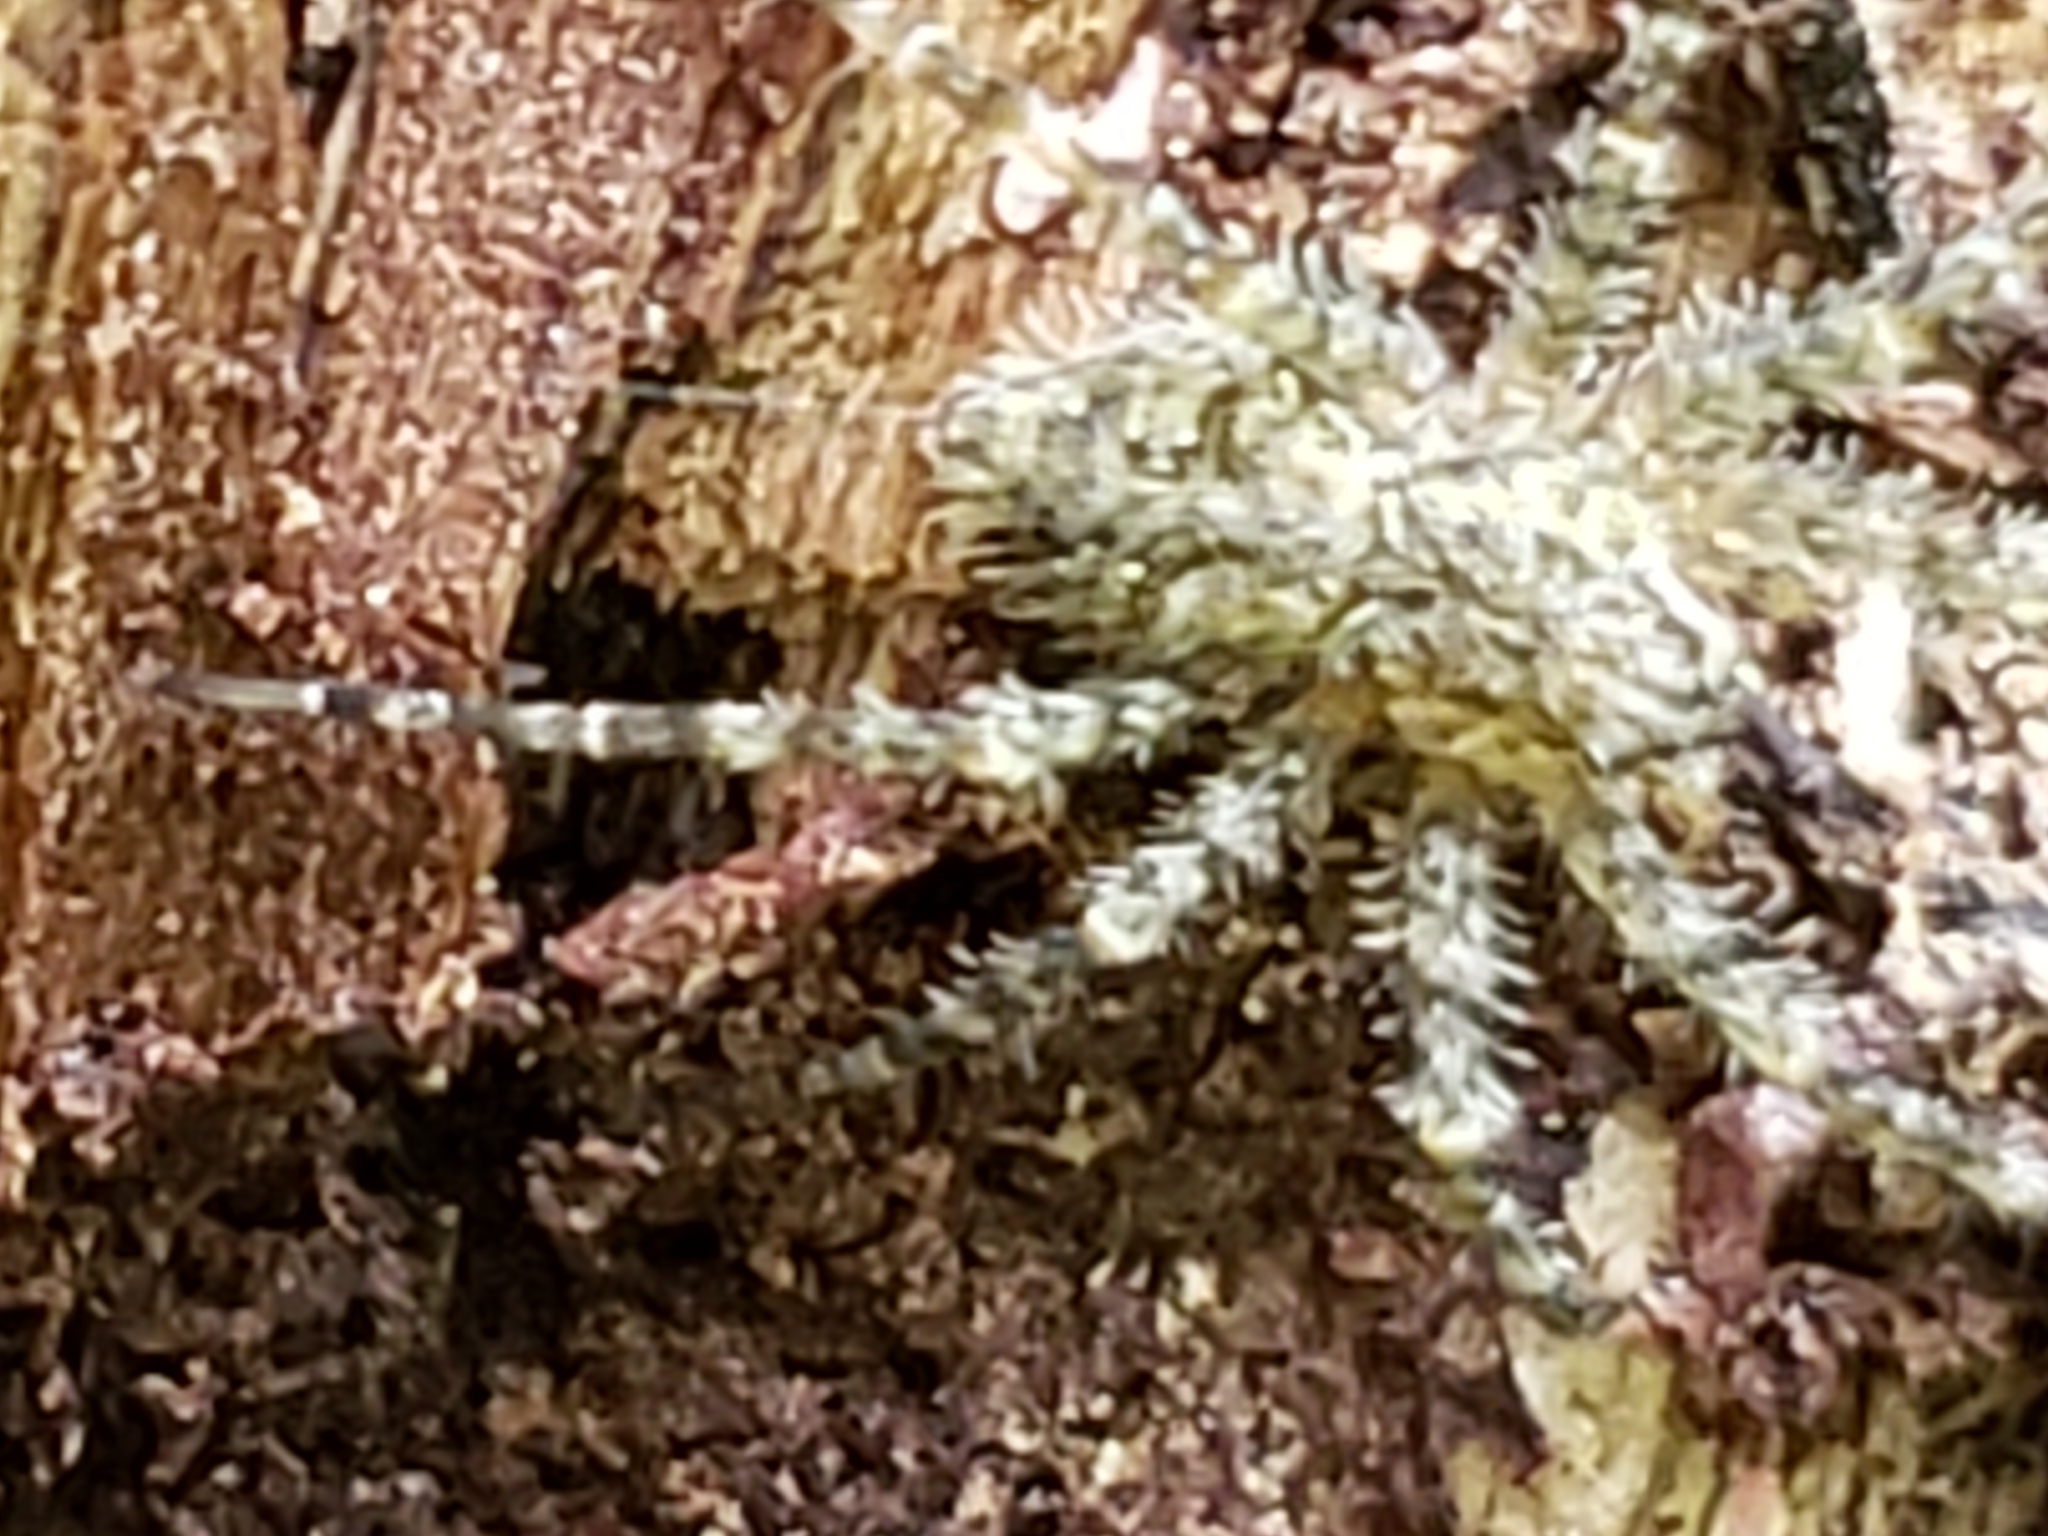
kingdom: Animalia
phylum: Arthropoda
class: Arachnida
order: Araneae
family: Pisauridae
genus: Dolomedes
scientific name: Dolomedes albineus
